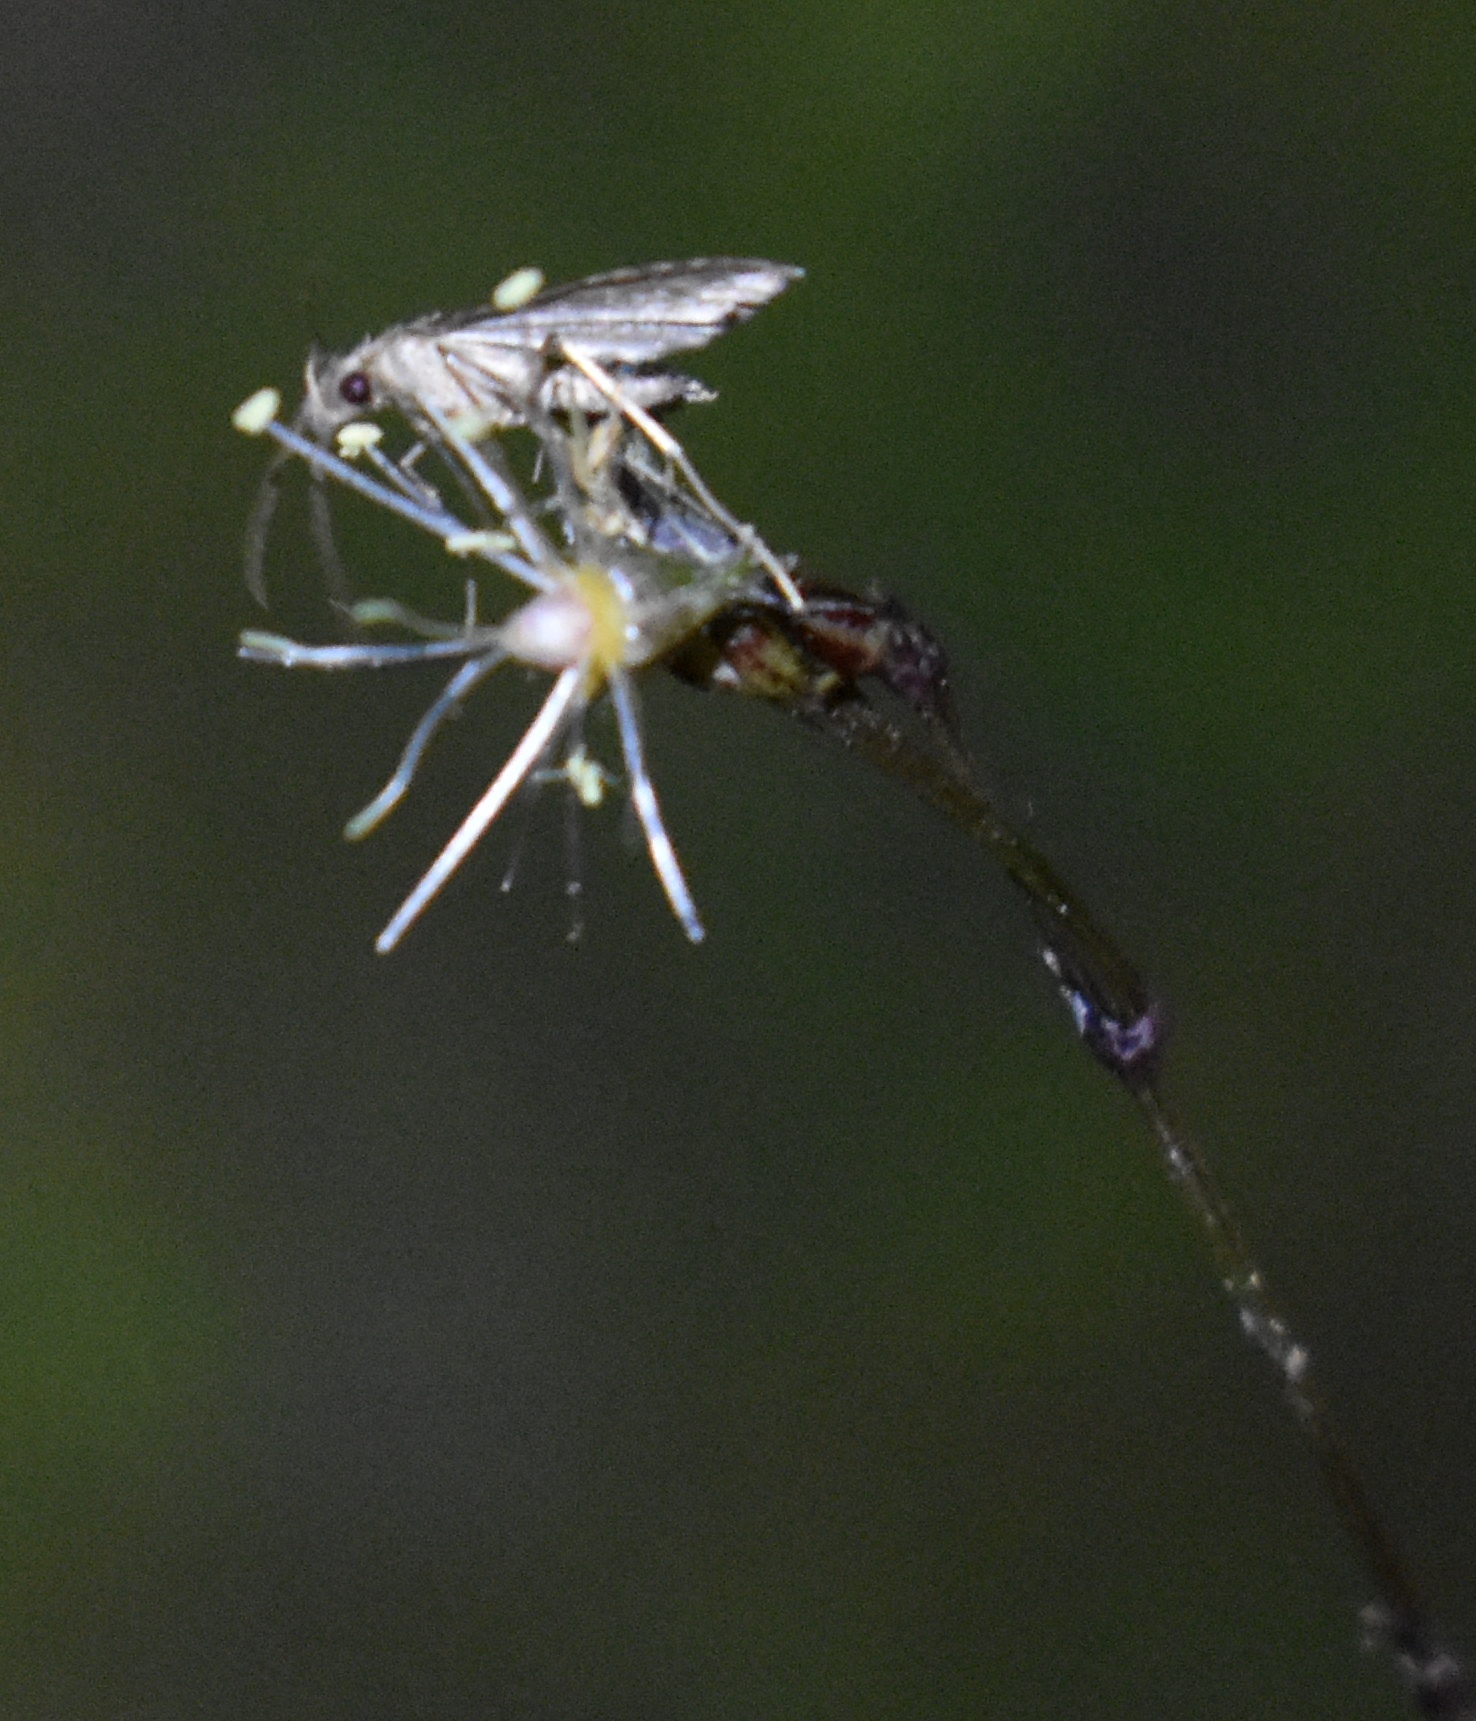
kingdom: Animalia
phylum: Arthropoda
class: Insecta
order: Lepidoptera
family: Erebidae
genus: Pseudoschrankia
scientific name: Pseudoschrankia brevipalpis
